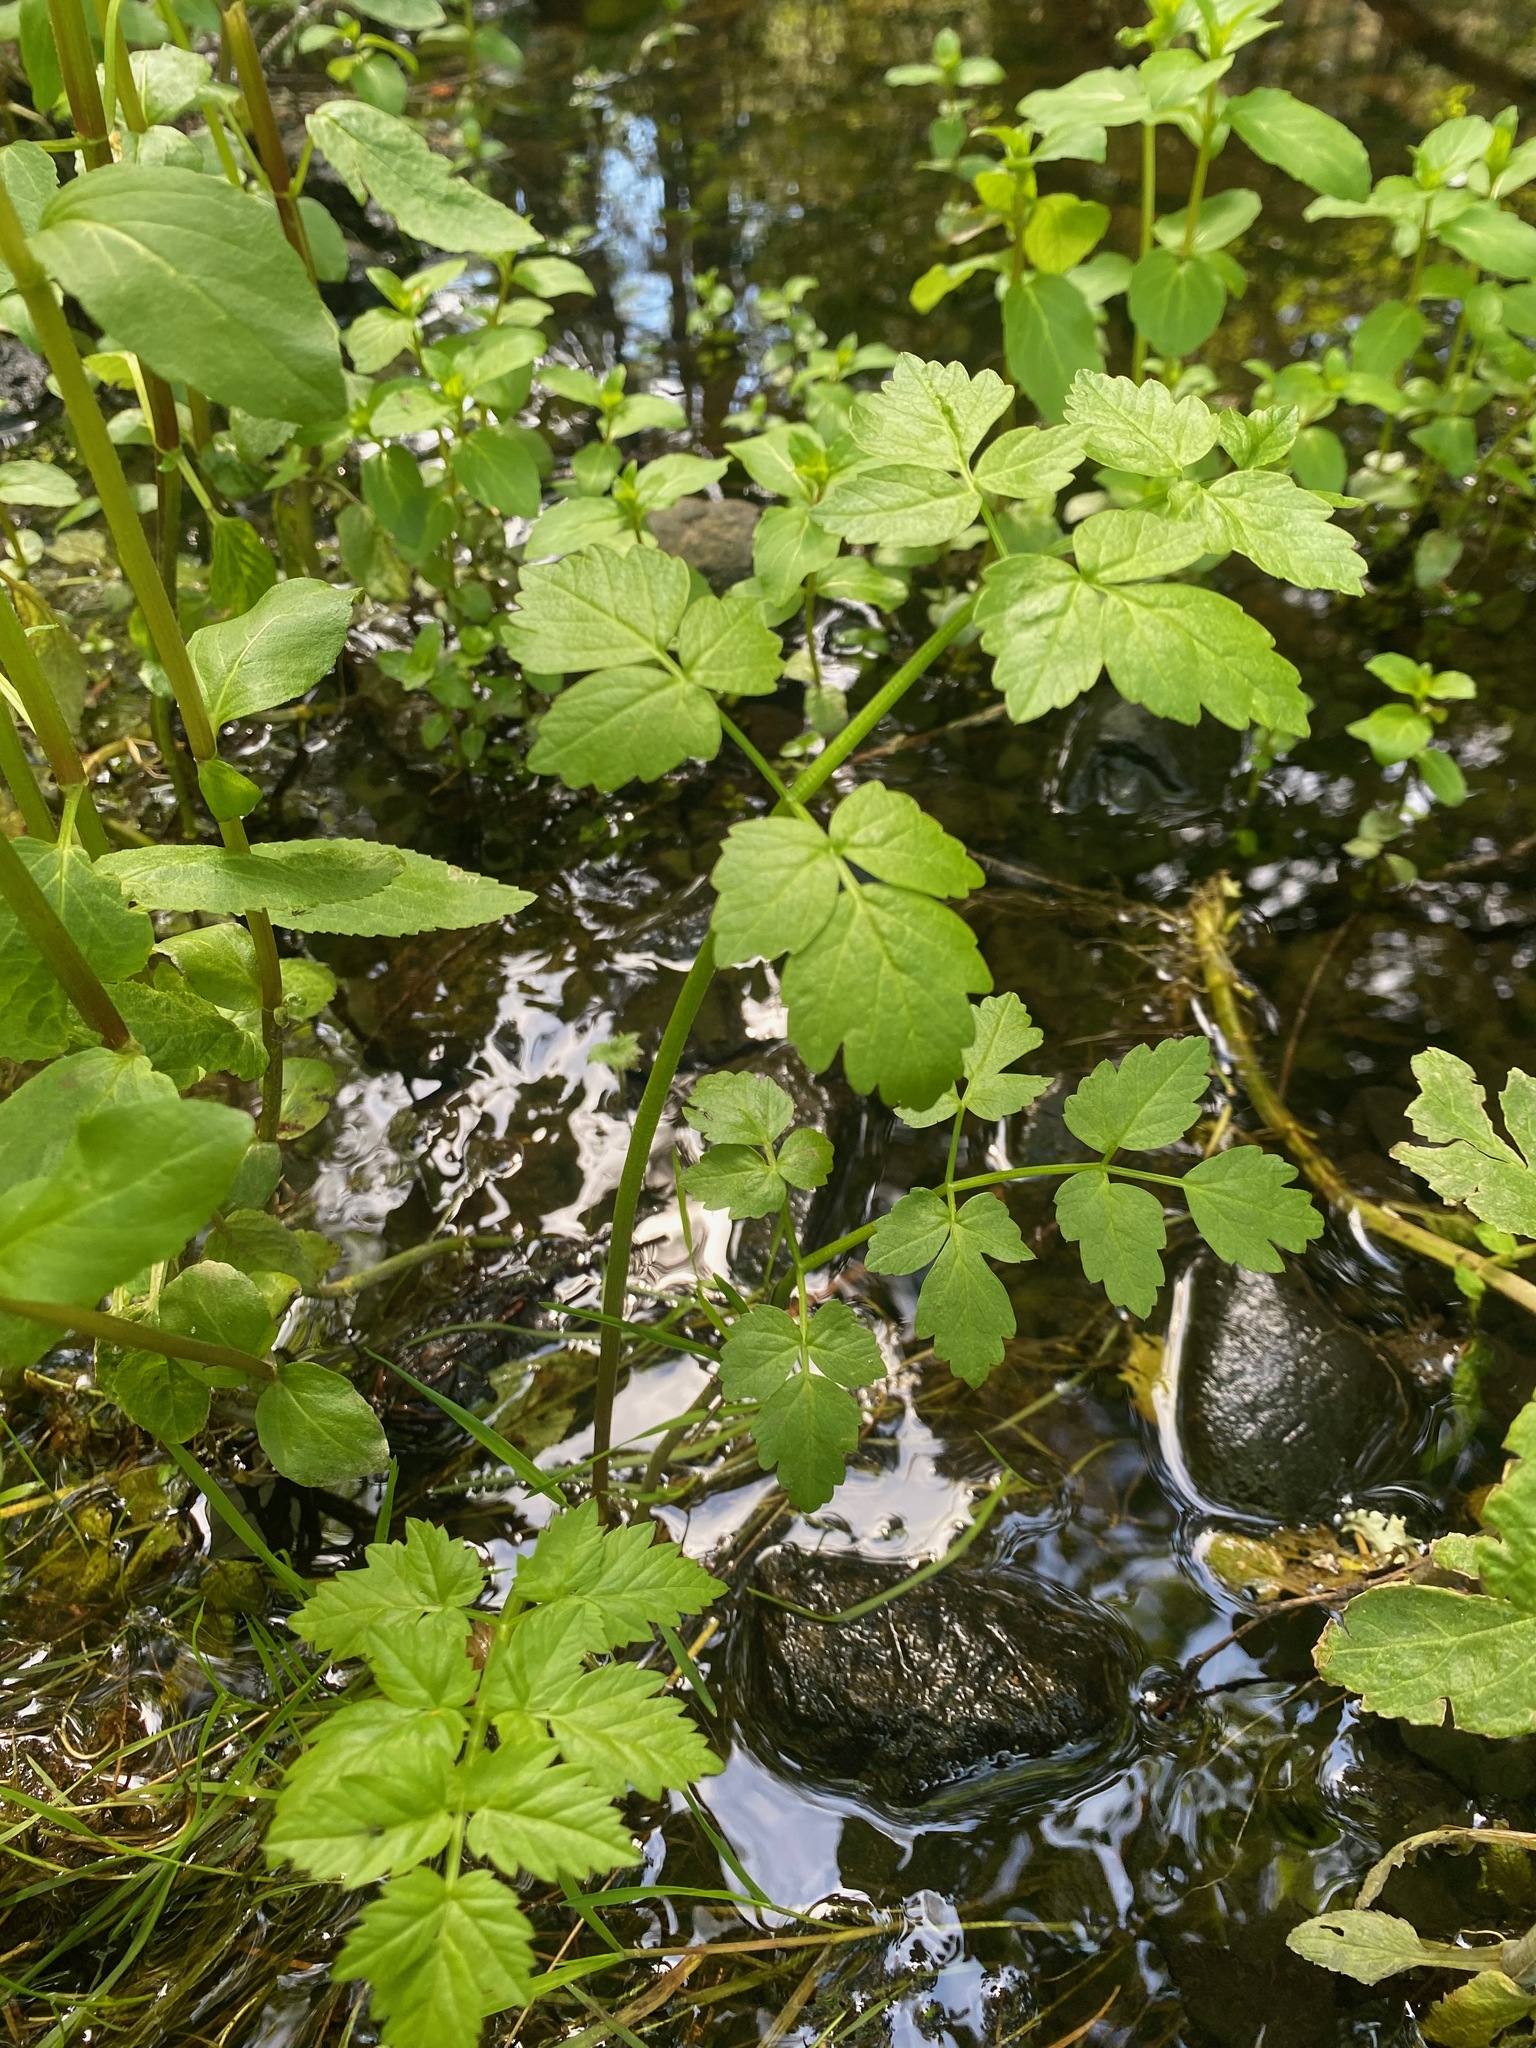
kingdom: Plantae
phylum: Tracheophyta
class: Magnoliopsida
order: Apiales
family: Apiaceae
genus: Oenanthe
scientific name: Oenanthe sarmentosa
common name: American water-parsley
